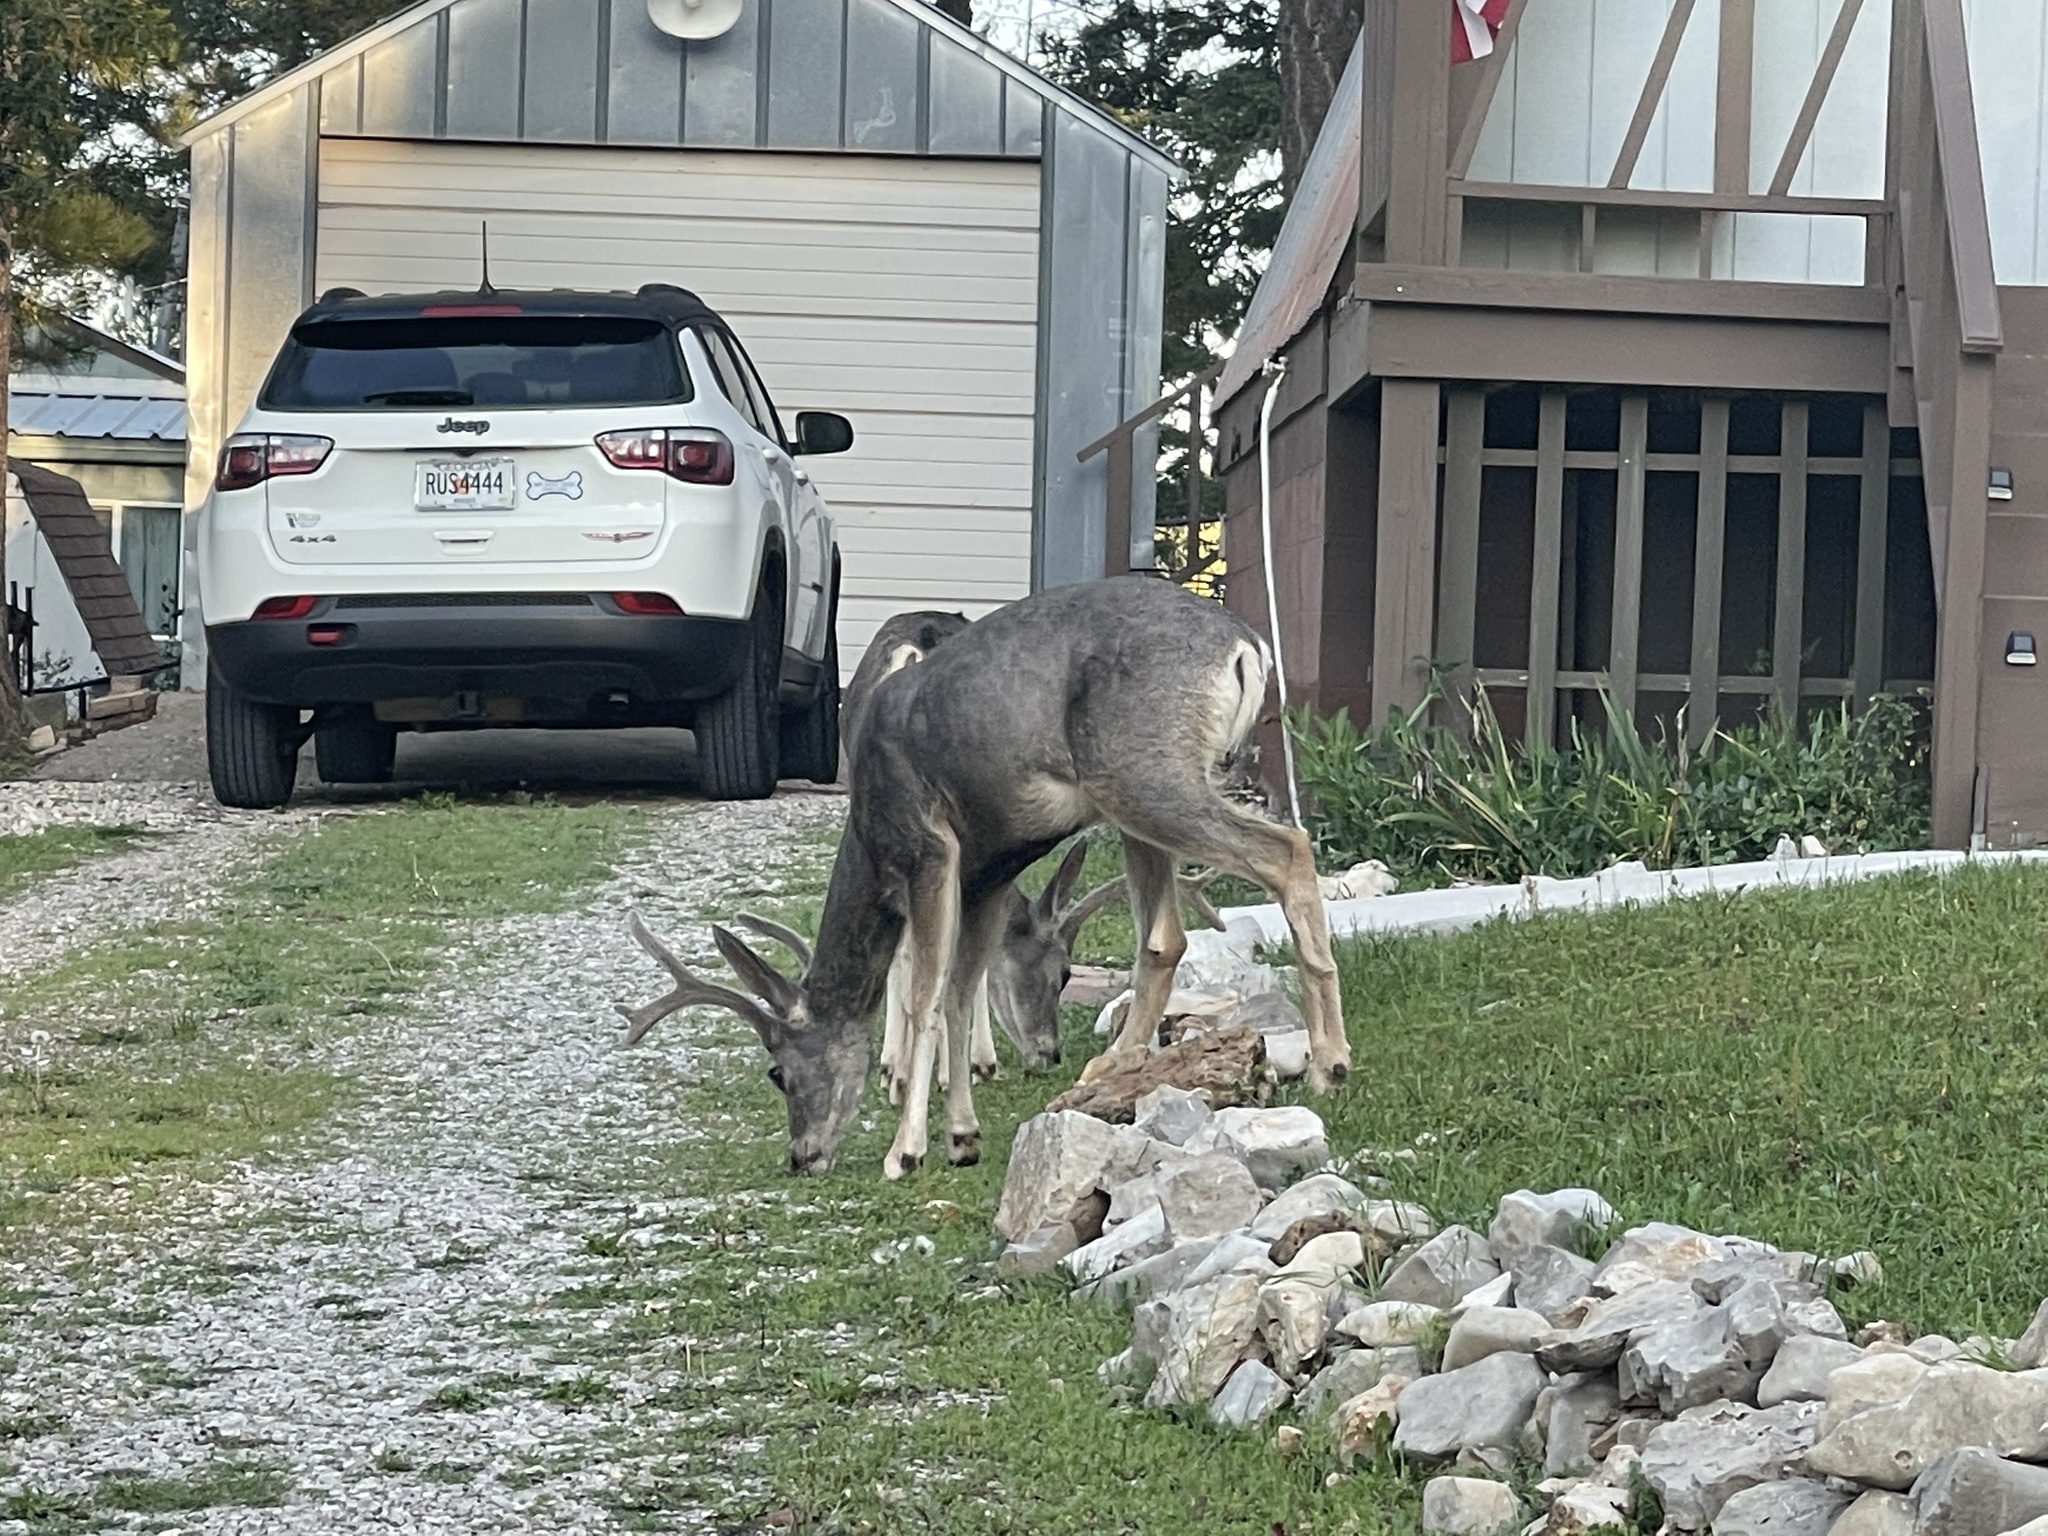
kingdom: Animalia
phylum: Chordata
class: Mammalia
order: Artiodactyla
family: Cervidae
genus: Odocoileus
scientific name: Odocoileus hemionus
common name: Mule deer
